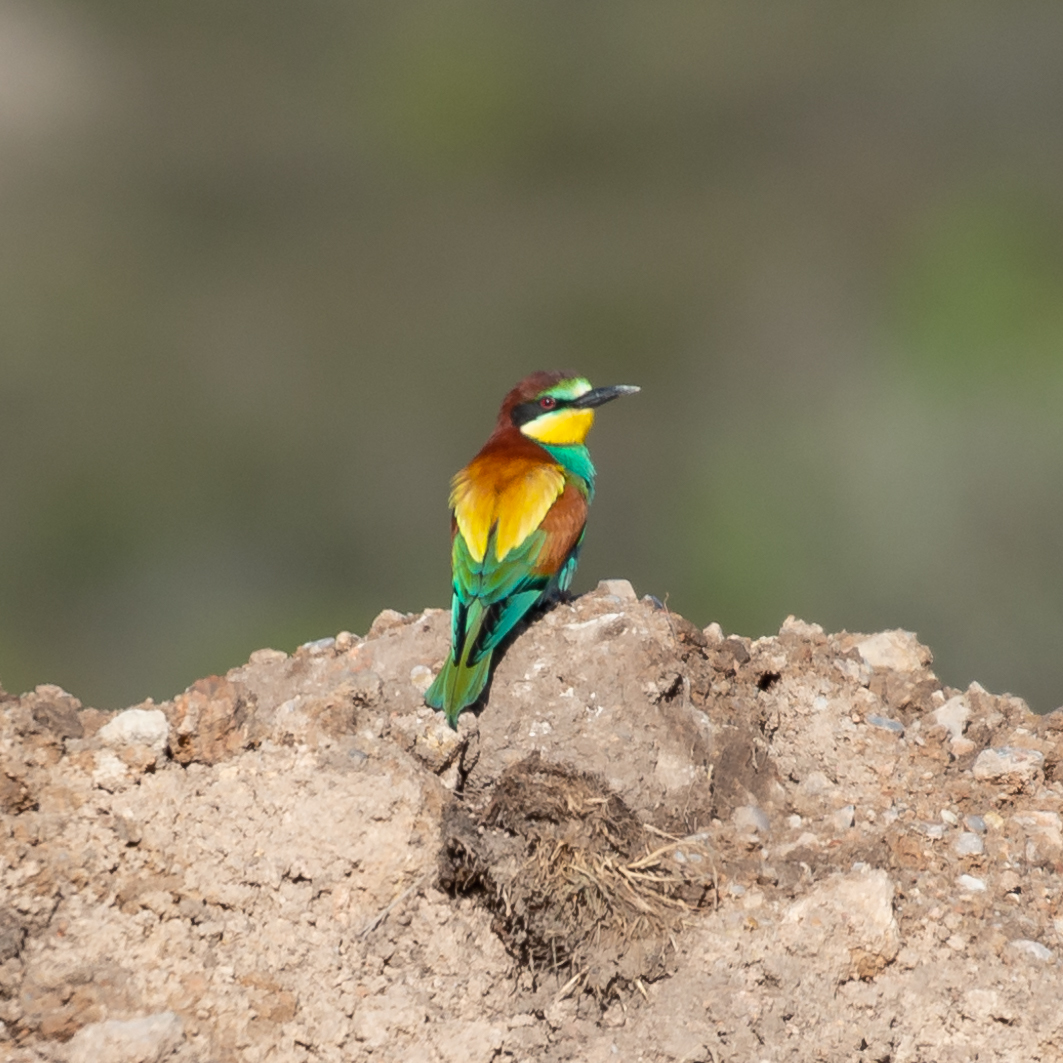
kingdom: Animalia
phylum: Chordata
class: Aves
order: Coraciiformes
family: Meropidae
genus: Merops
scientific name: Merops apiaster
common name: European bee-eater
